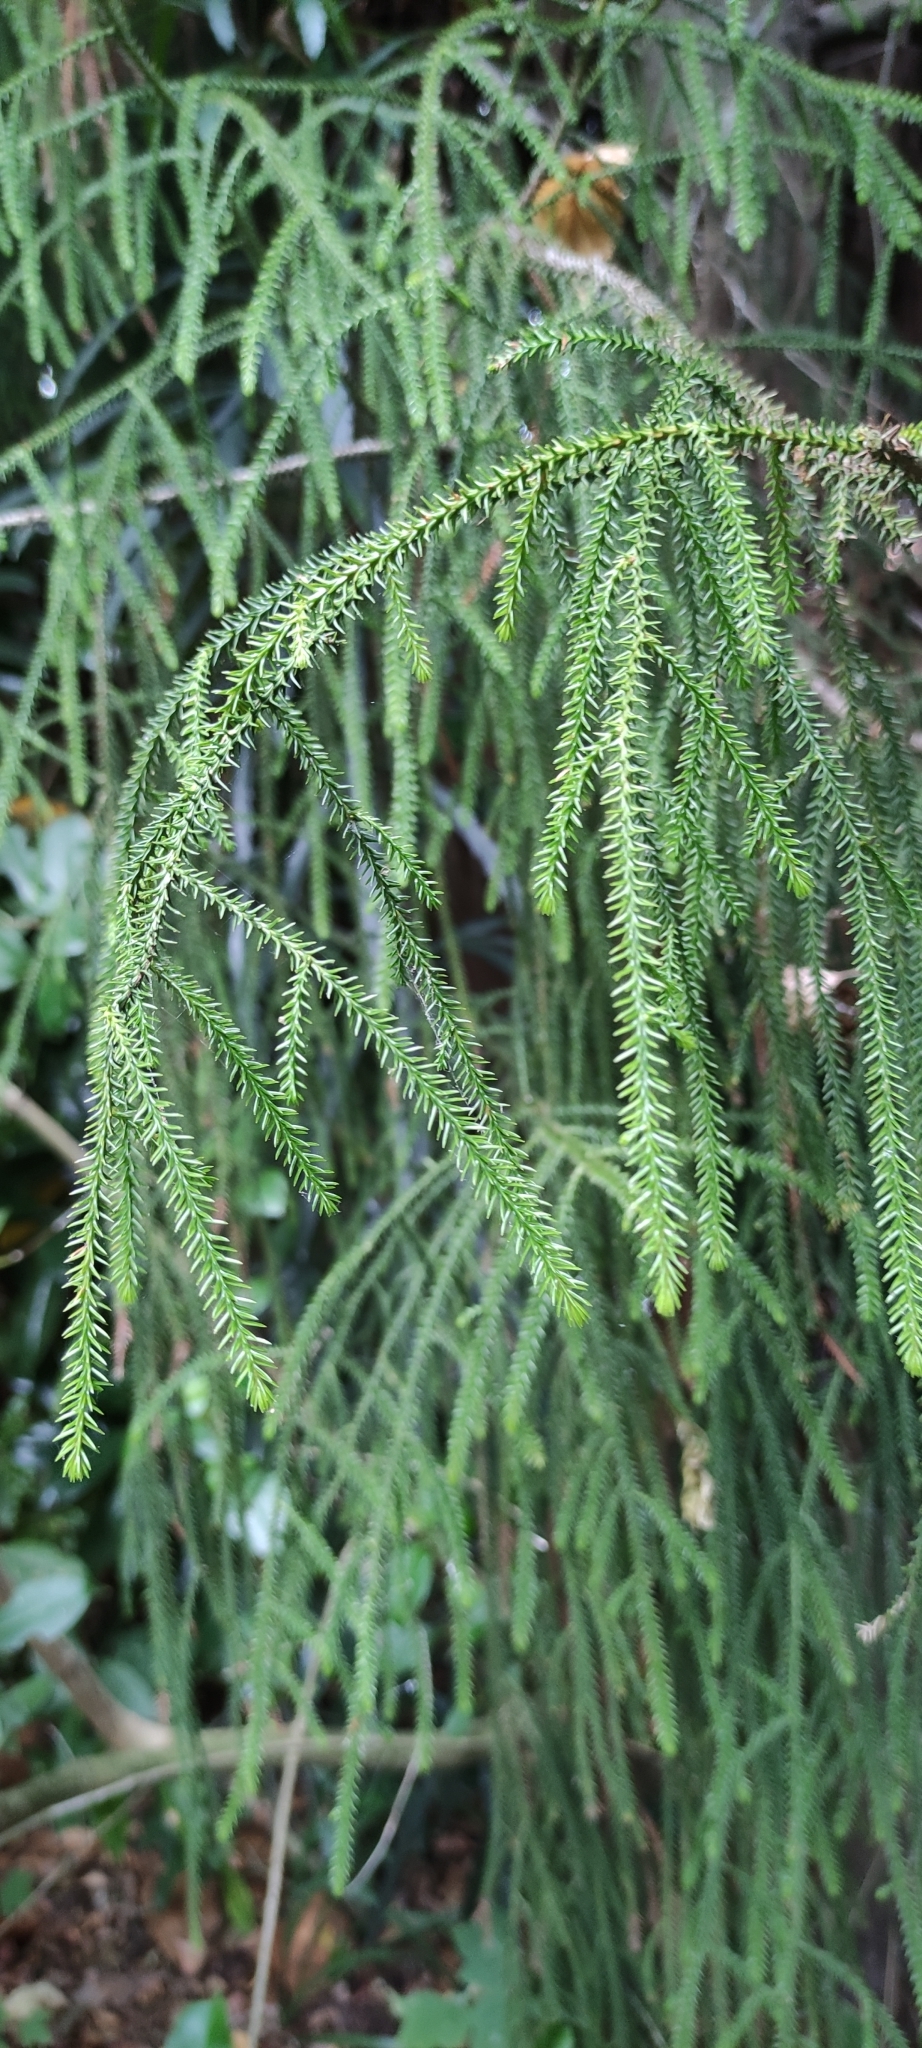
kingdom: Plantae
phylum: Tracheophyta
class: Pinopsida
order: Pinales
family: Podocarpaceae
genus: Dacrydium
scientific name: Dacrydium cupressinum
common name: Red pine
